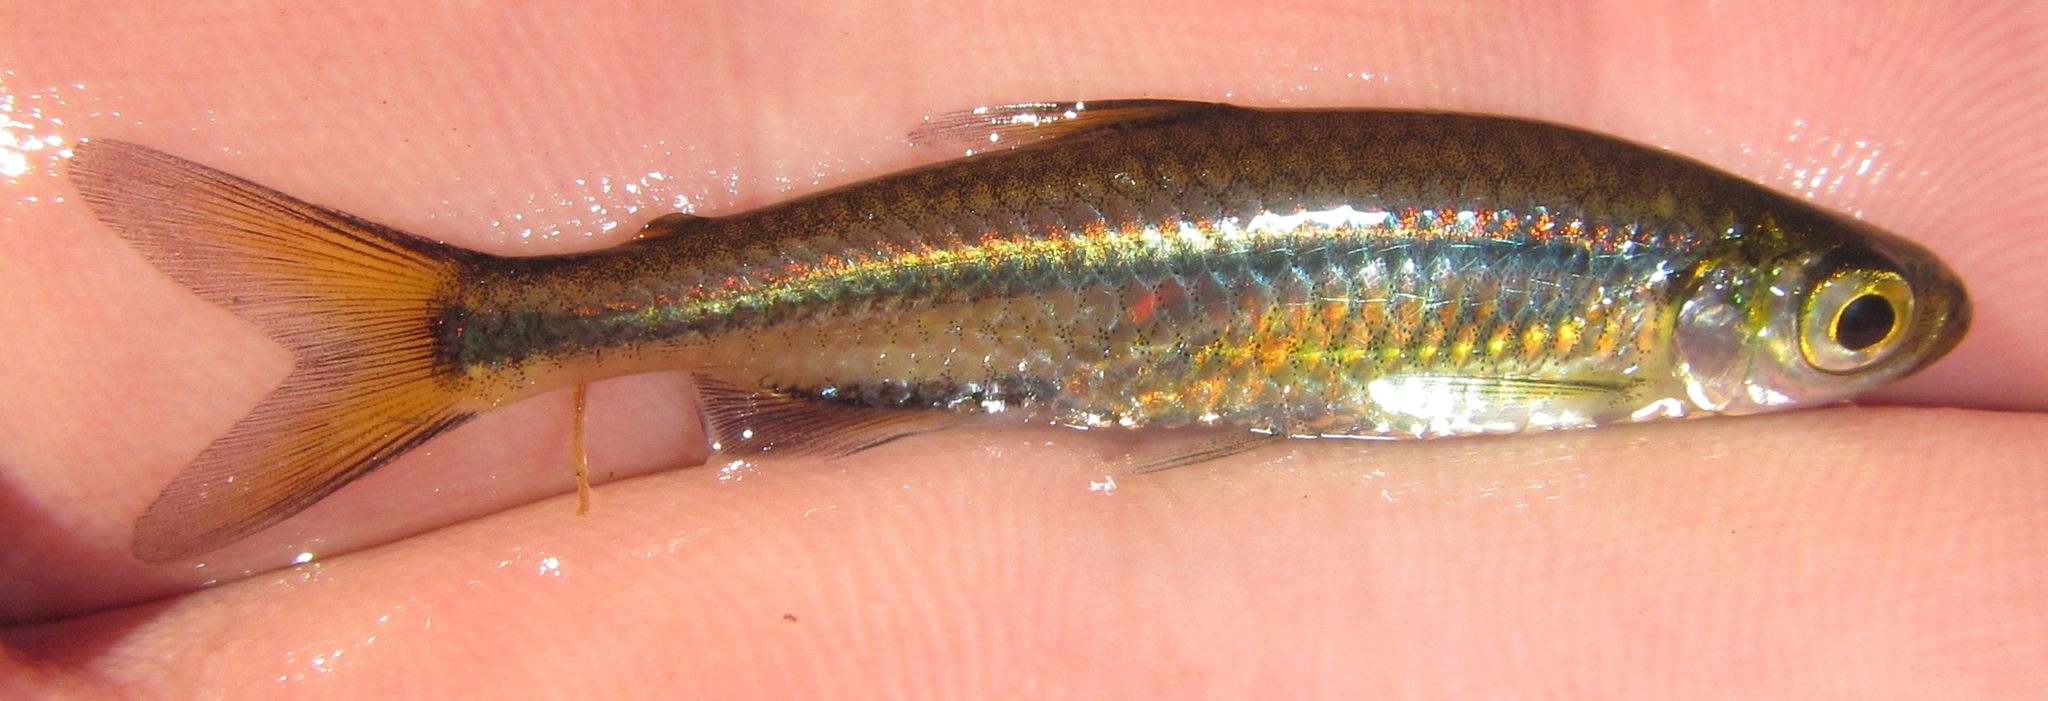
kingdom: Animalia
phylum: Chordata
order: Characiformes
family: Alestidae
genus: Rhabdalestes
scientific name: Rhabdalestes maunensis
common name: Slender robber
